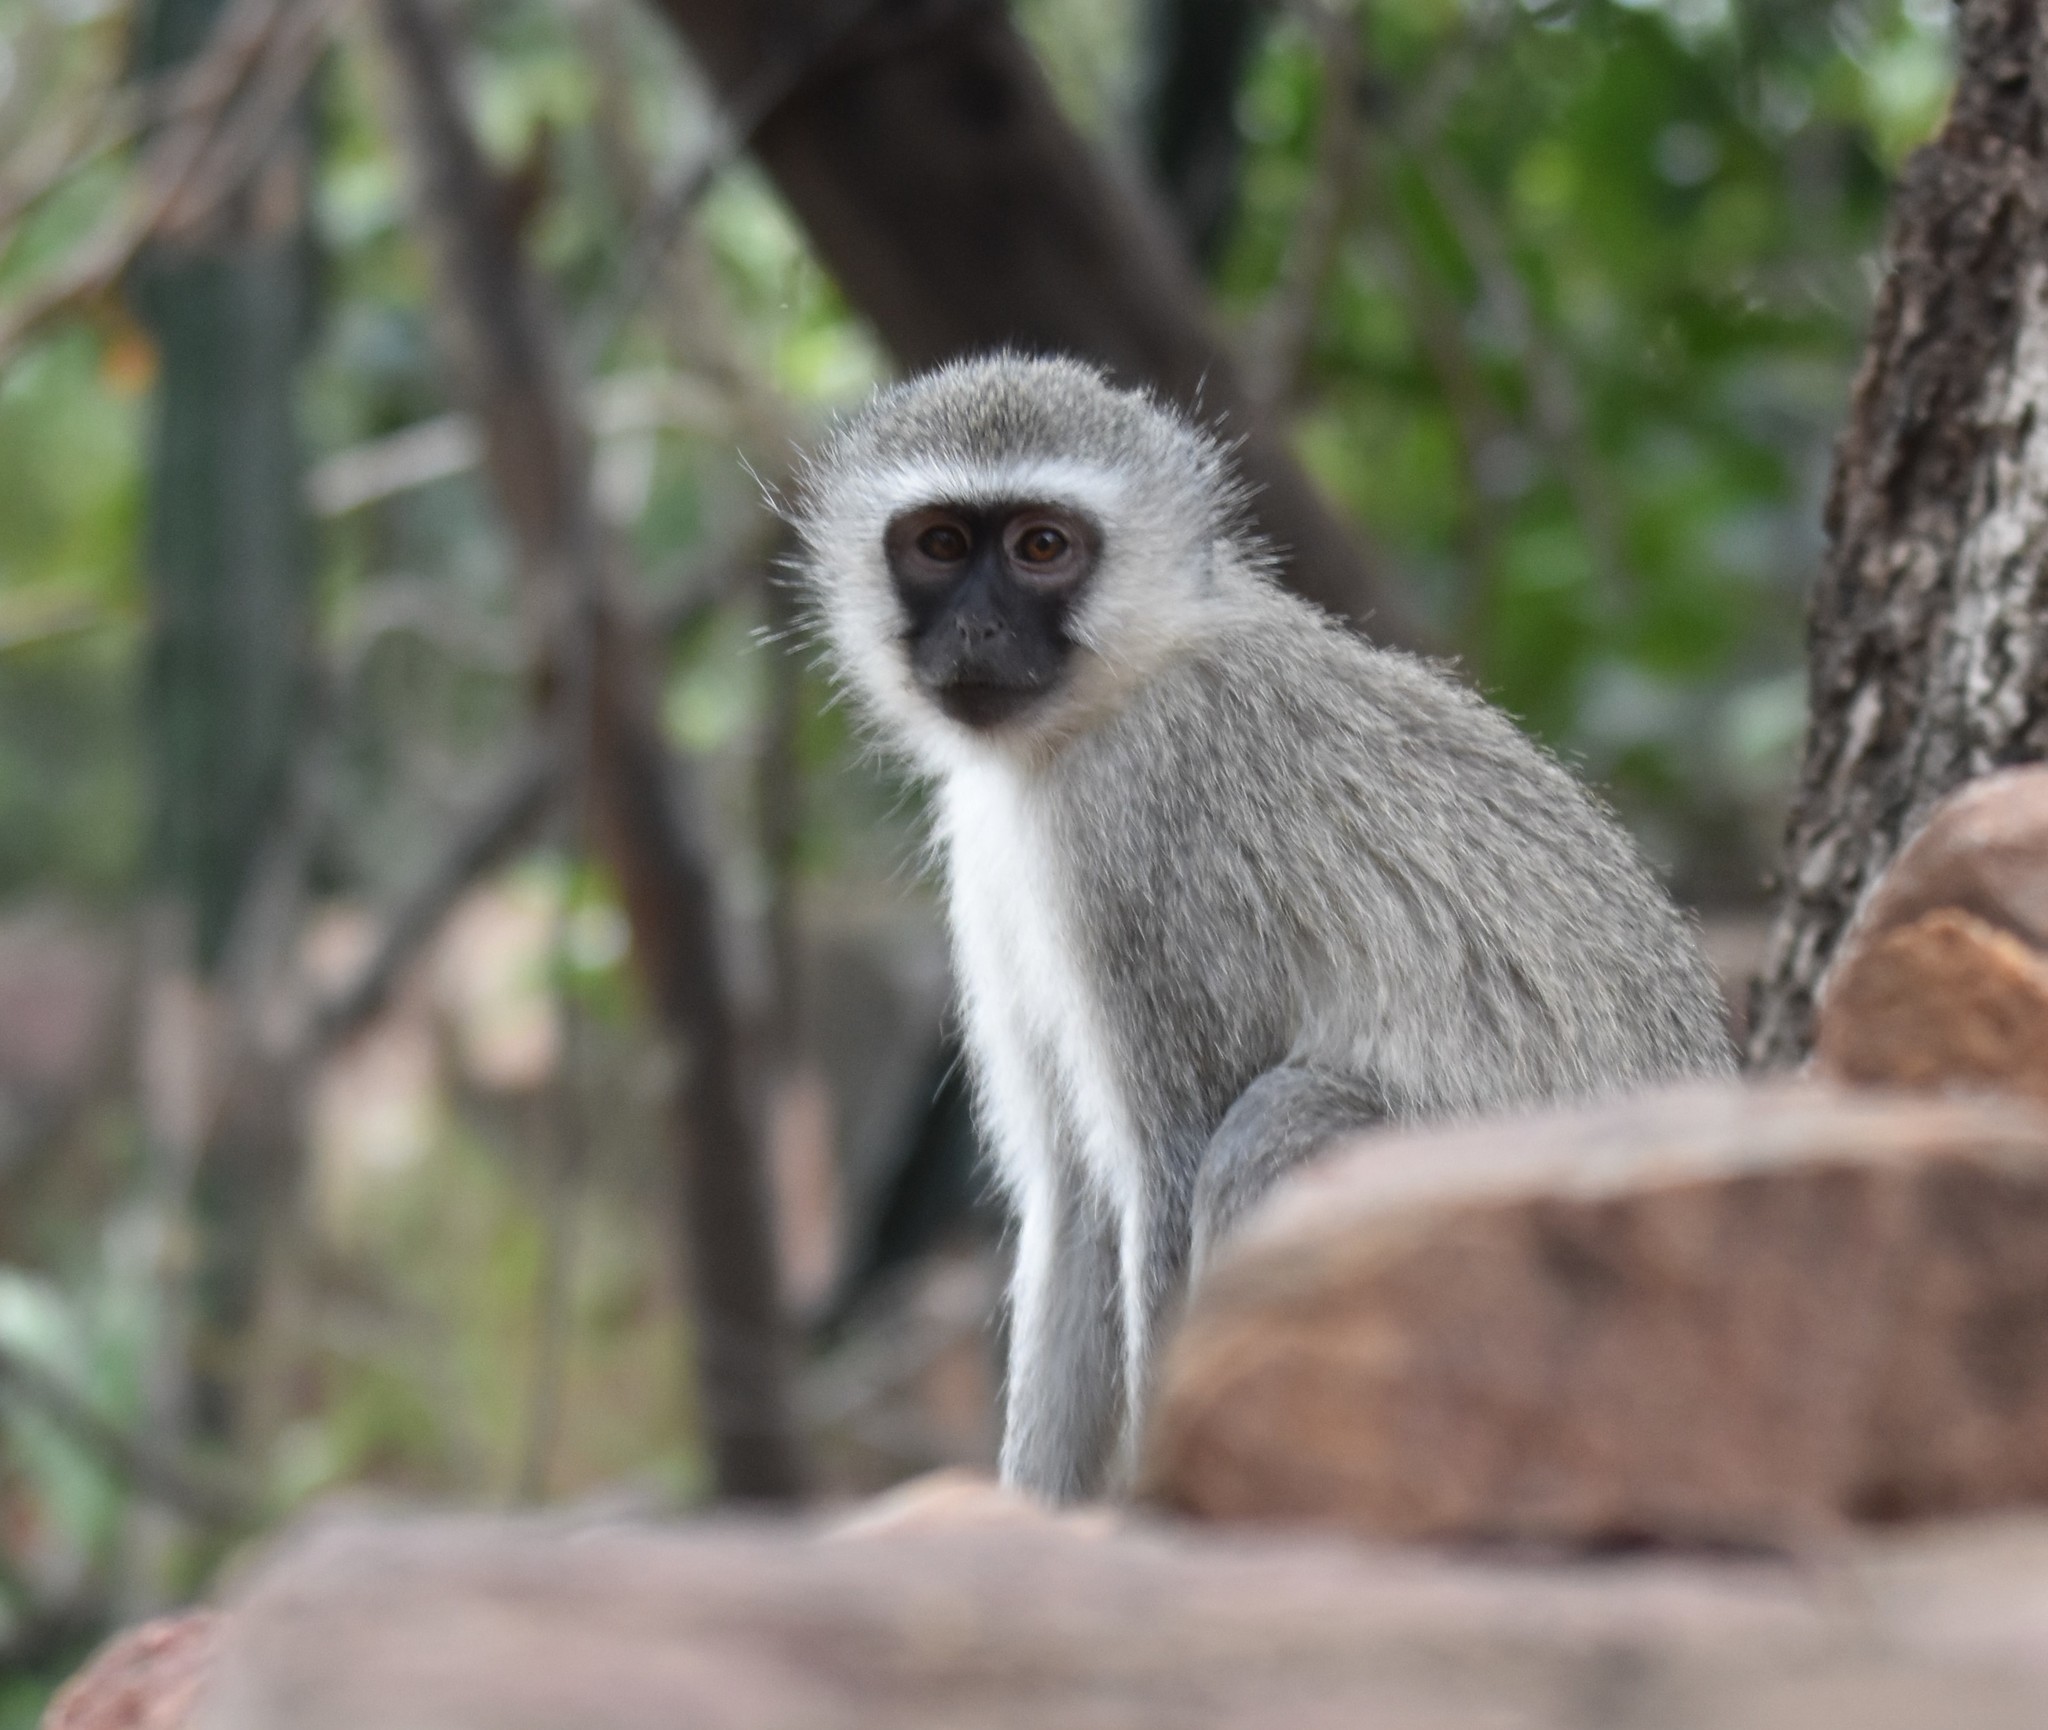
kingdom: Animalia
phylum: Chordata
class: Mammalia
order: Primates
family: Cercopithecidae
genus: Chlorocebus
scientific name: Chlorocebus pygerythrus
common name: Vervet monkey
